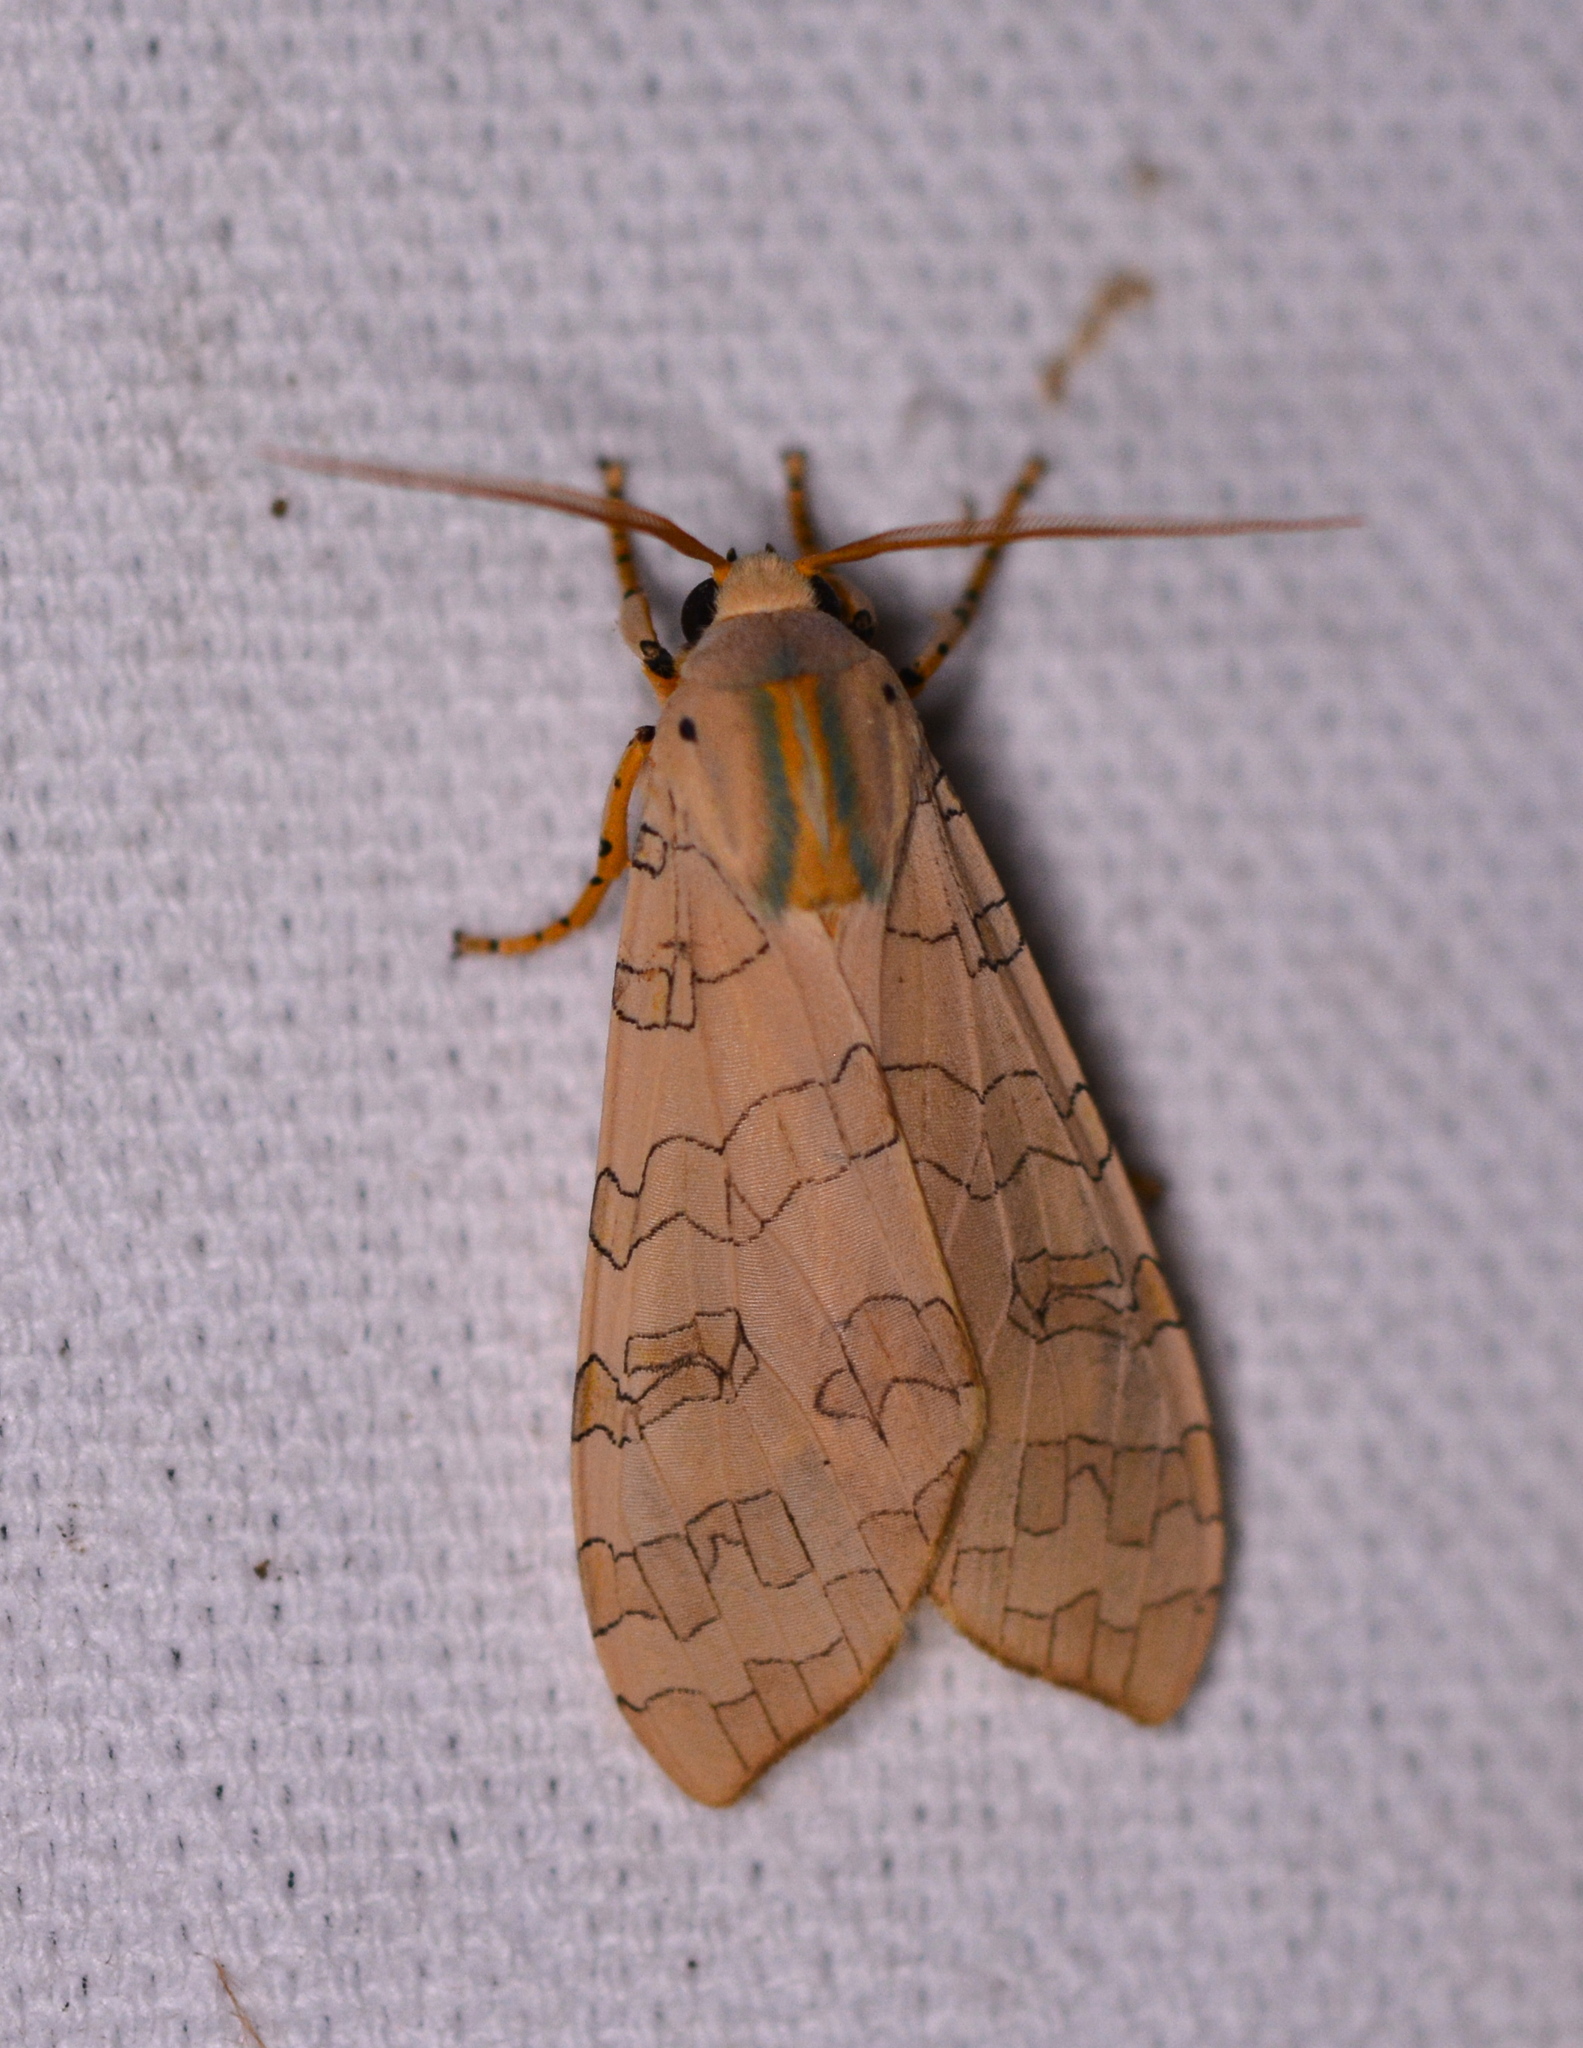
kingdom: Animalia
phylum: Arthropoda
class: Insecta
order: Lepidoptera
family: Erebidae
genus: Halysidota
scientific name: Halysidota
